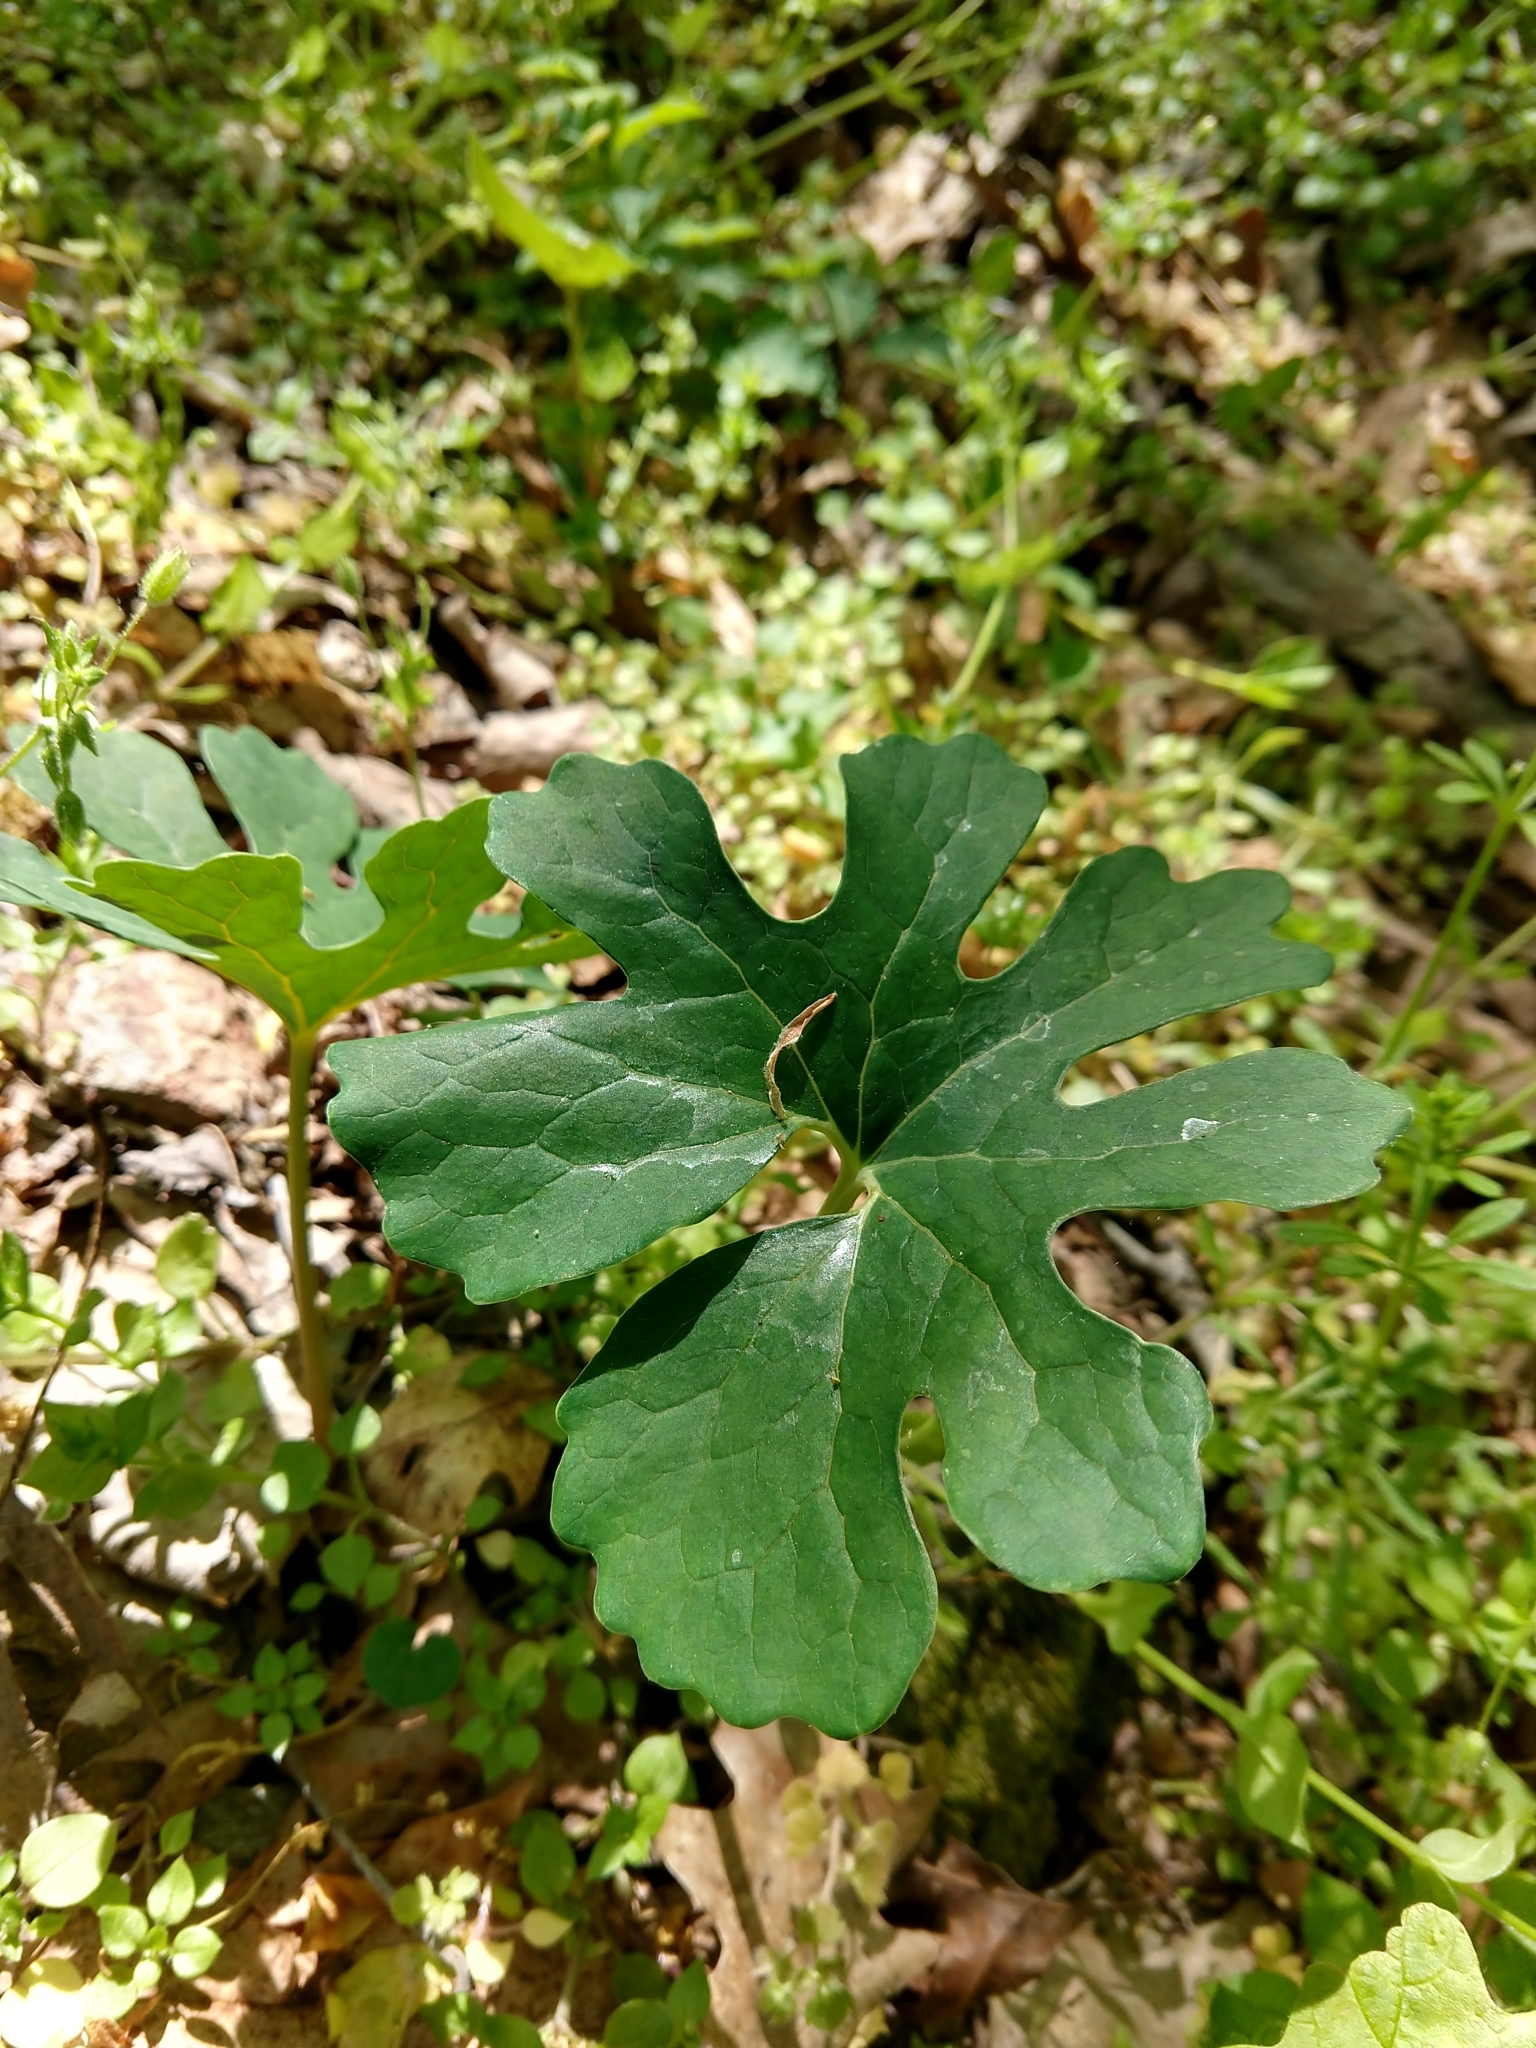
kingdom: Plantae
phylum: Tracheophyta
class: Magnoliopsida
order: Ranunculales
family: Papaveraceae
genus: Sanguinaria
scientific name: Sanguinaria canadensis
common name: Bloodroot
